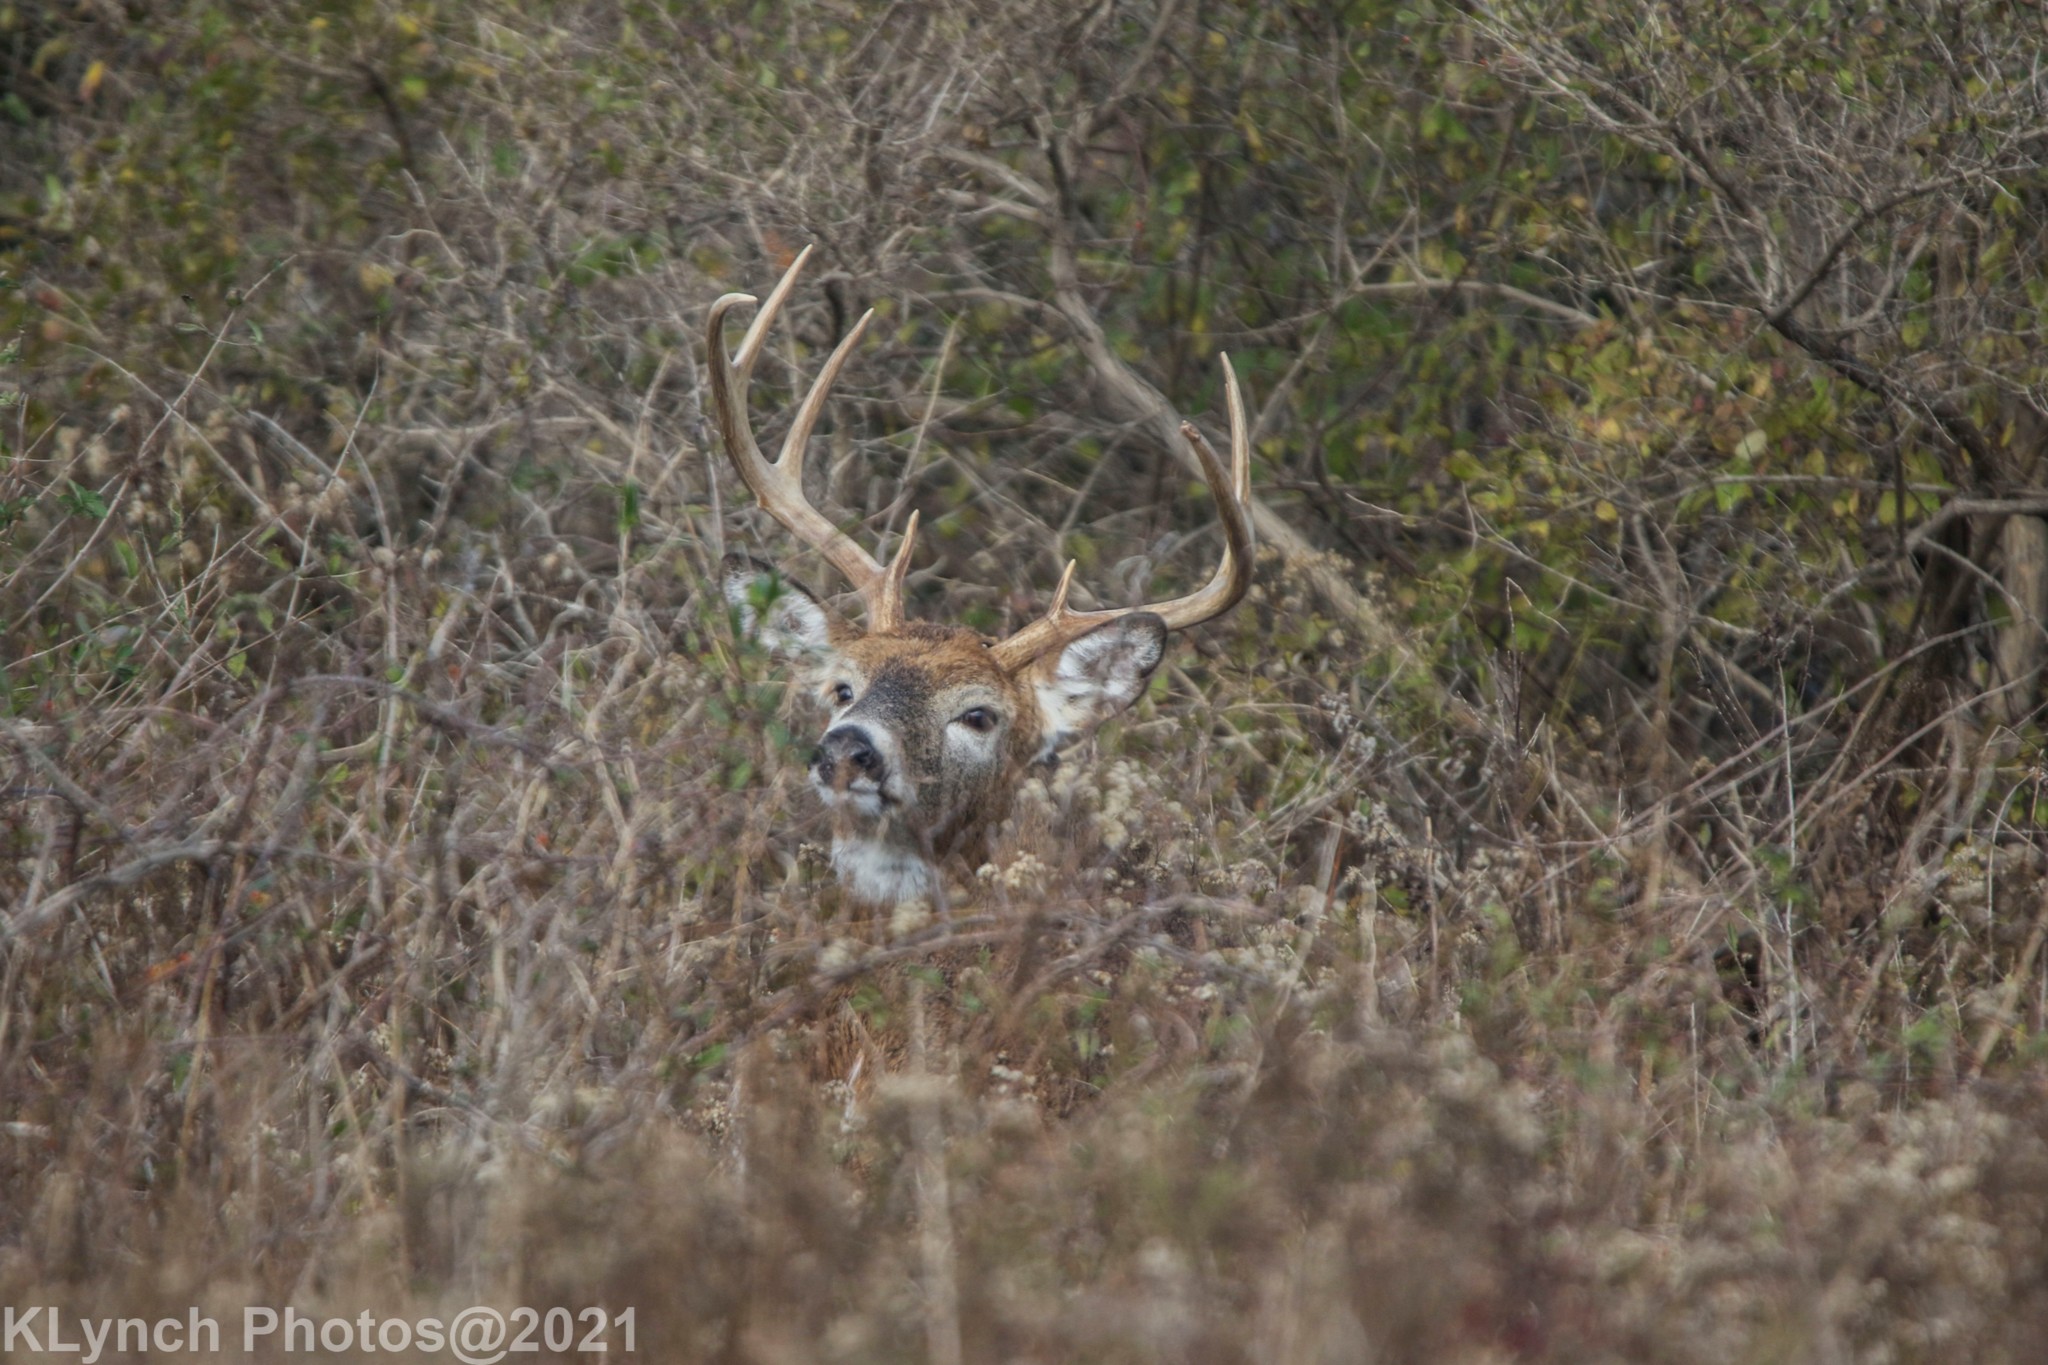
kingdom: Animalia
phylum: Chordata
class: Mammalia
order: Artiodactyla
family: Cervidae
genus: Odocoileus
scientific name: Odocoileus virginianus
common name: White-tailed deer
